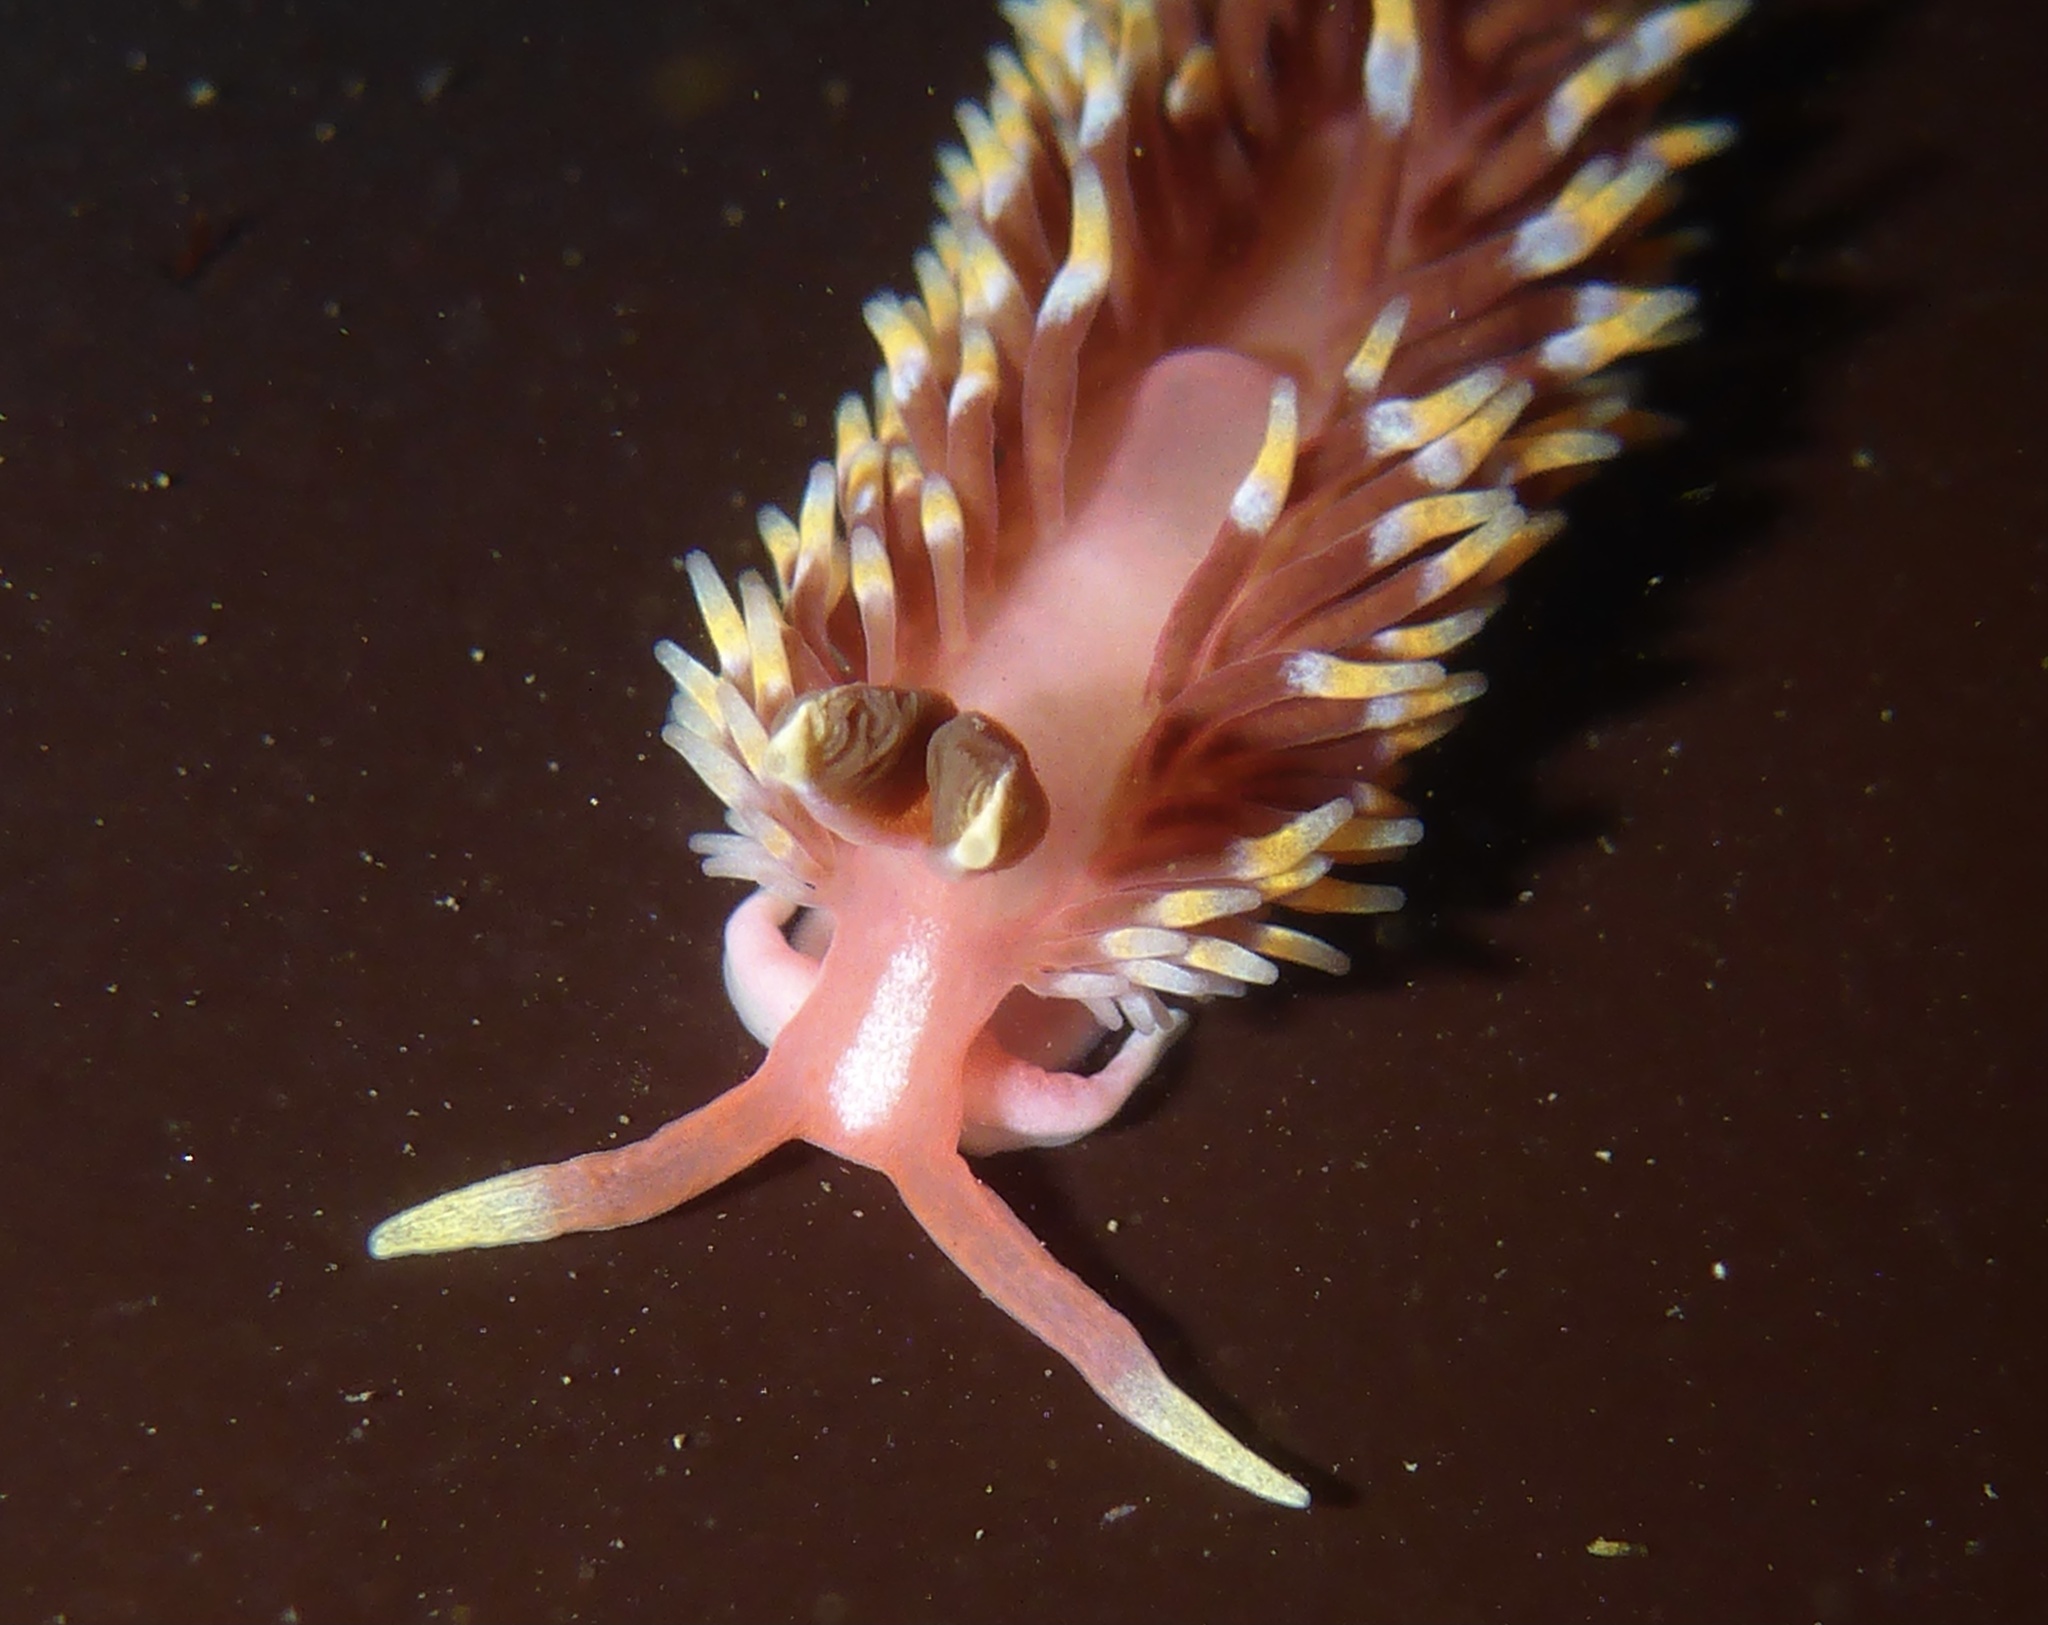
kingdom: Animalia
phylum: Mollusca
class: Gastropoda
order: Nudibranchia
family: Babakinidae
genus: Babakina
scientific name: Babakina festiva
